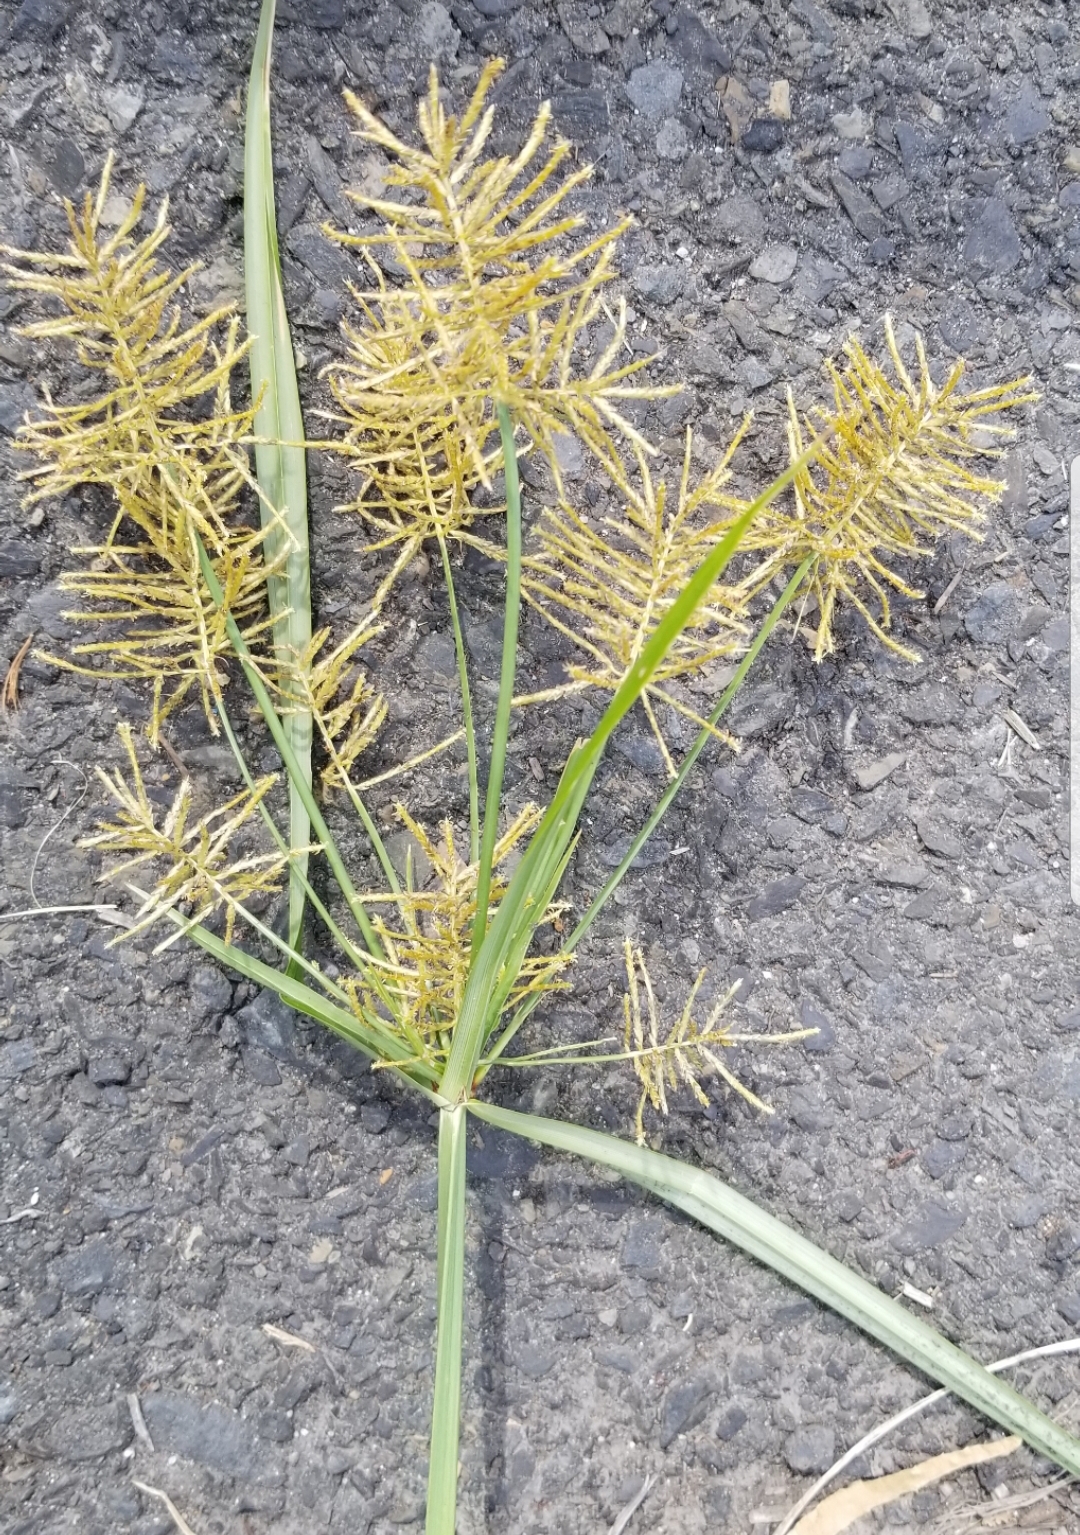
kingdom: Plantae
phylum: Tracheophyta
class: Liliopsida
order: Poales
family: Cyperaceae
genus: Cyperus
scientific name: Cyperus esculentus
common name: Yellow nutsedge
